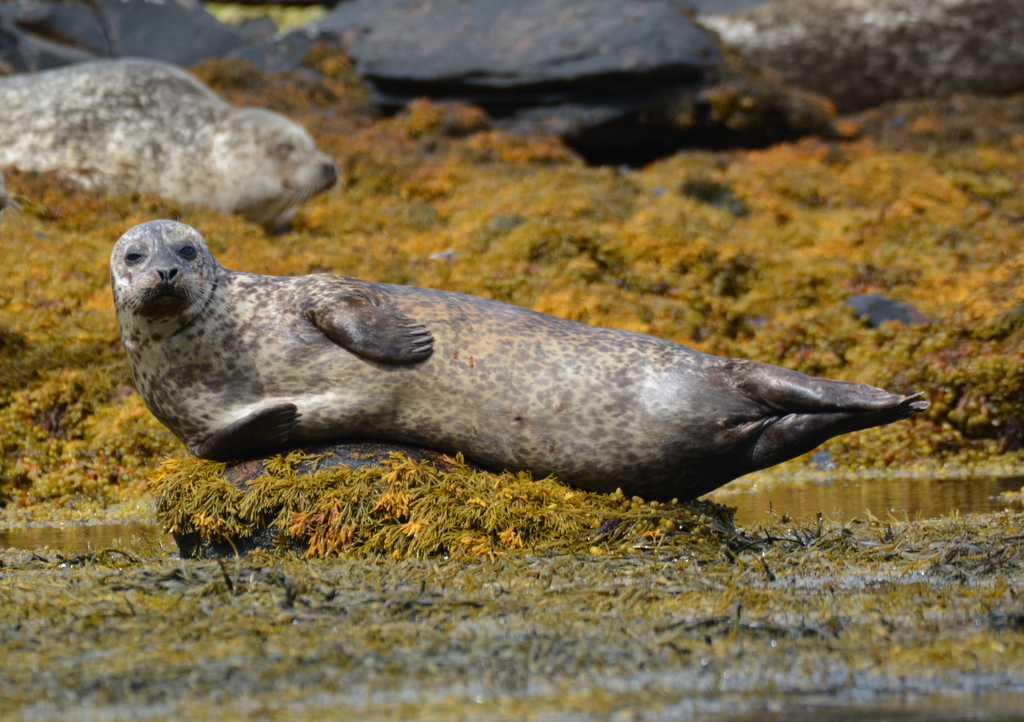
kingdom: Animalia
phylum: Chordata
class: Mammalia
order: Carnivora
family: Phocidae
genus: Phoca
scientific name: Phoca vitulina
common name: Harbor seal
